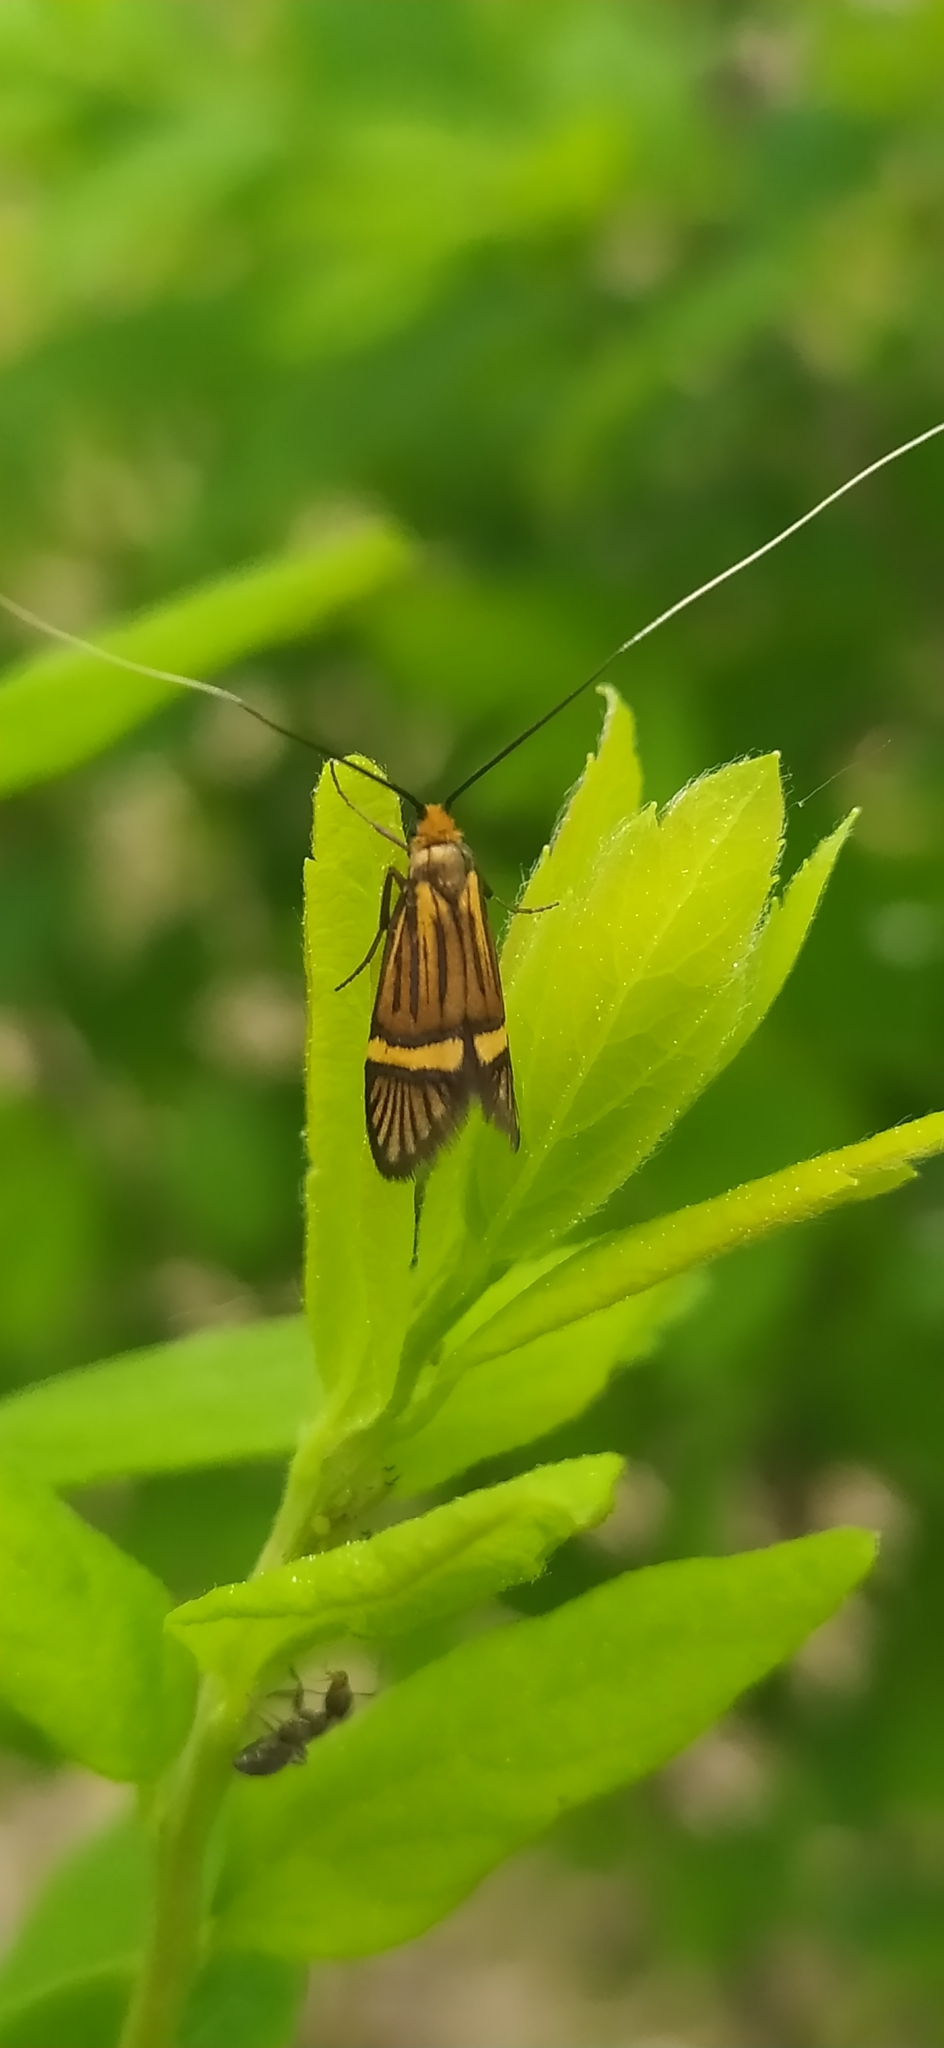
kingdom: Animalia
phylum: Arthropoda
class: Insecta
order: Lepidoptera
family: Adelidae
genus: Adela
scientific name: Adela croesella
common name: Small barred long-horn
